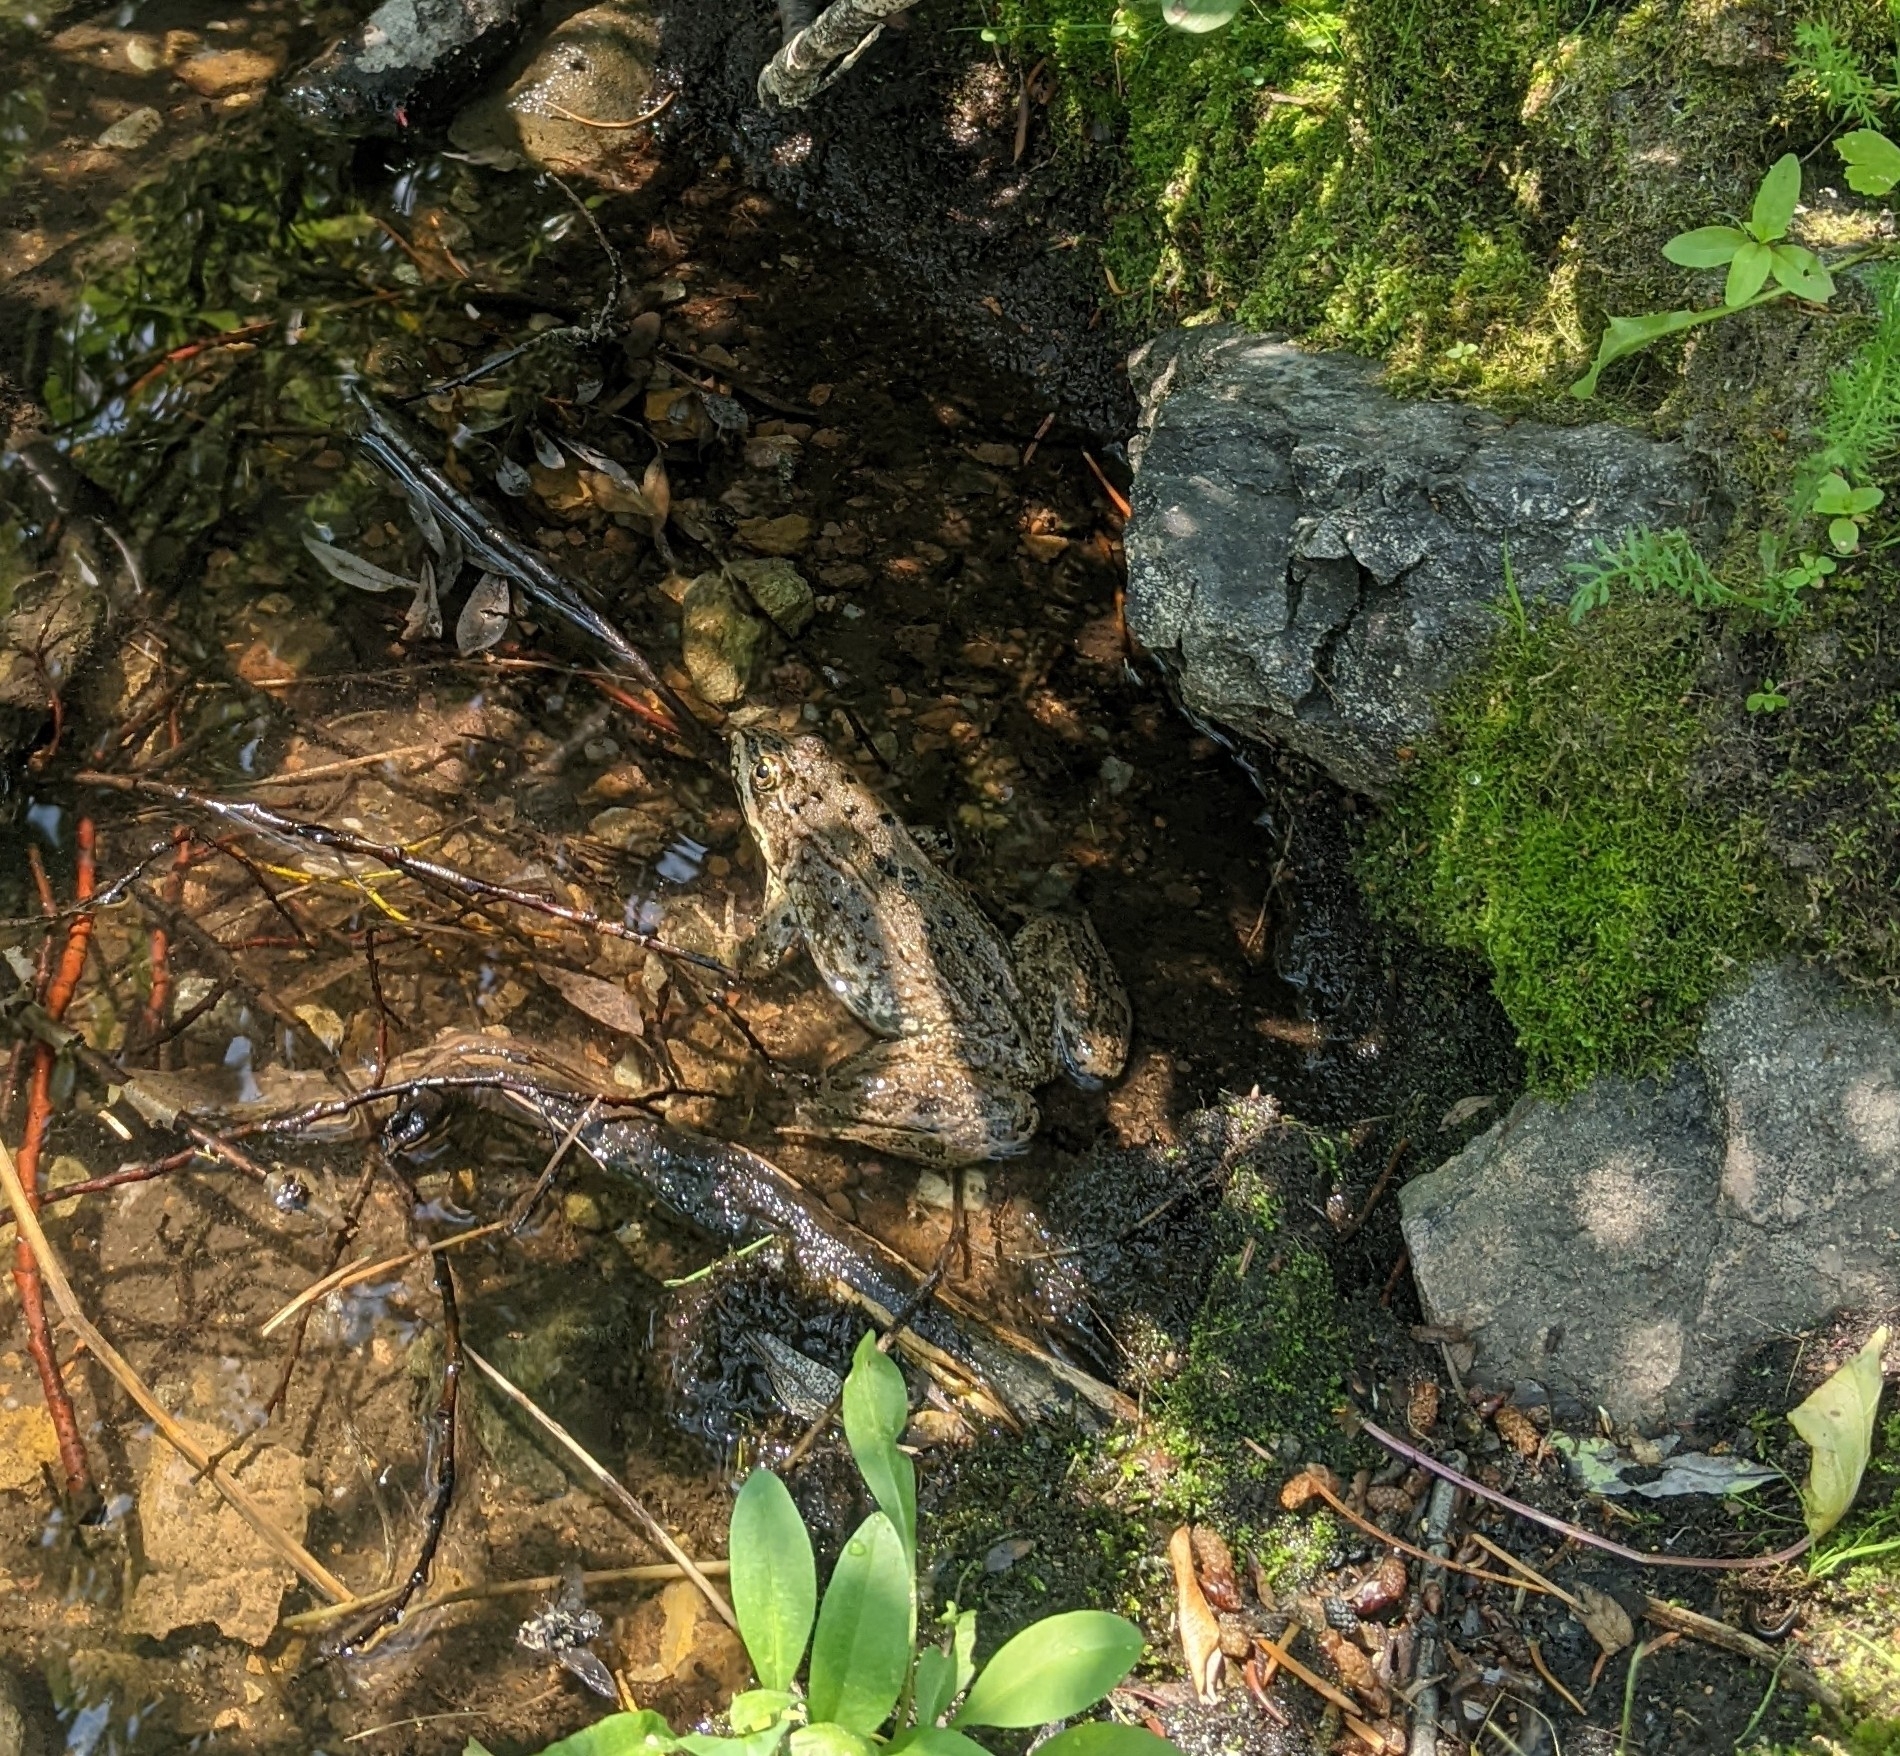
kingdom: Animalia
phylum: Chordata
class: Amphibia
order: Anura
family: Ranidae
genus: Rana
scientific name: Rana luteiventris
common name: Columbia spotted frog
